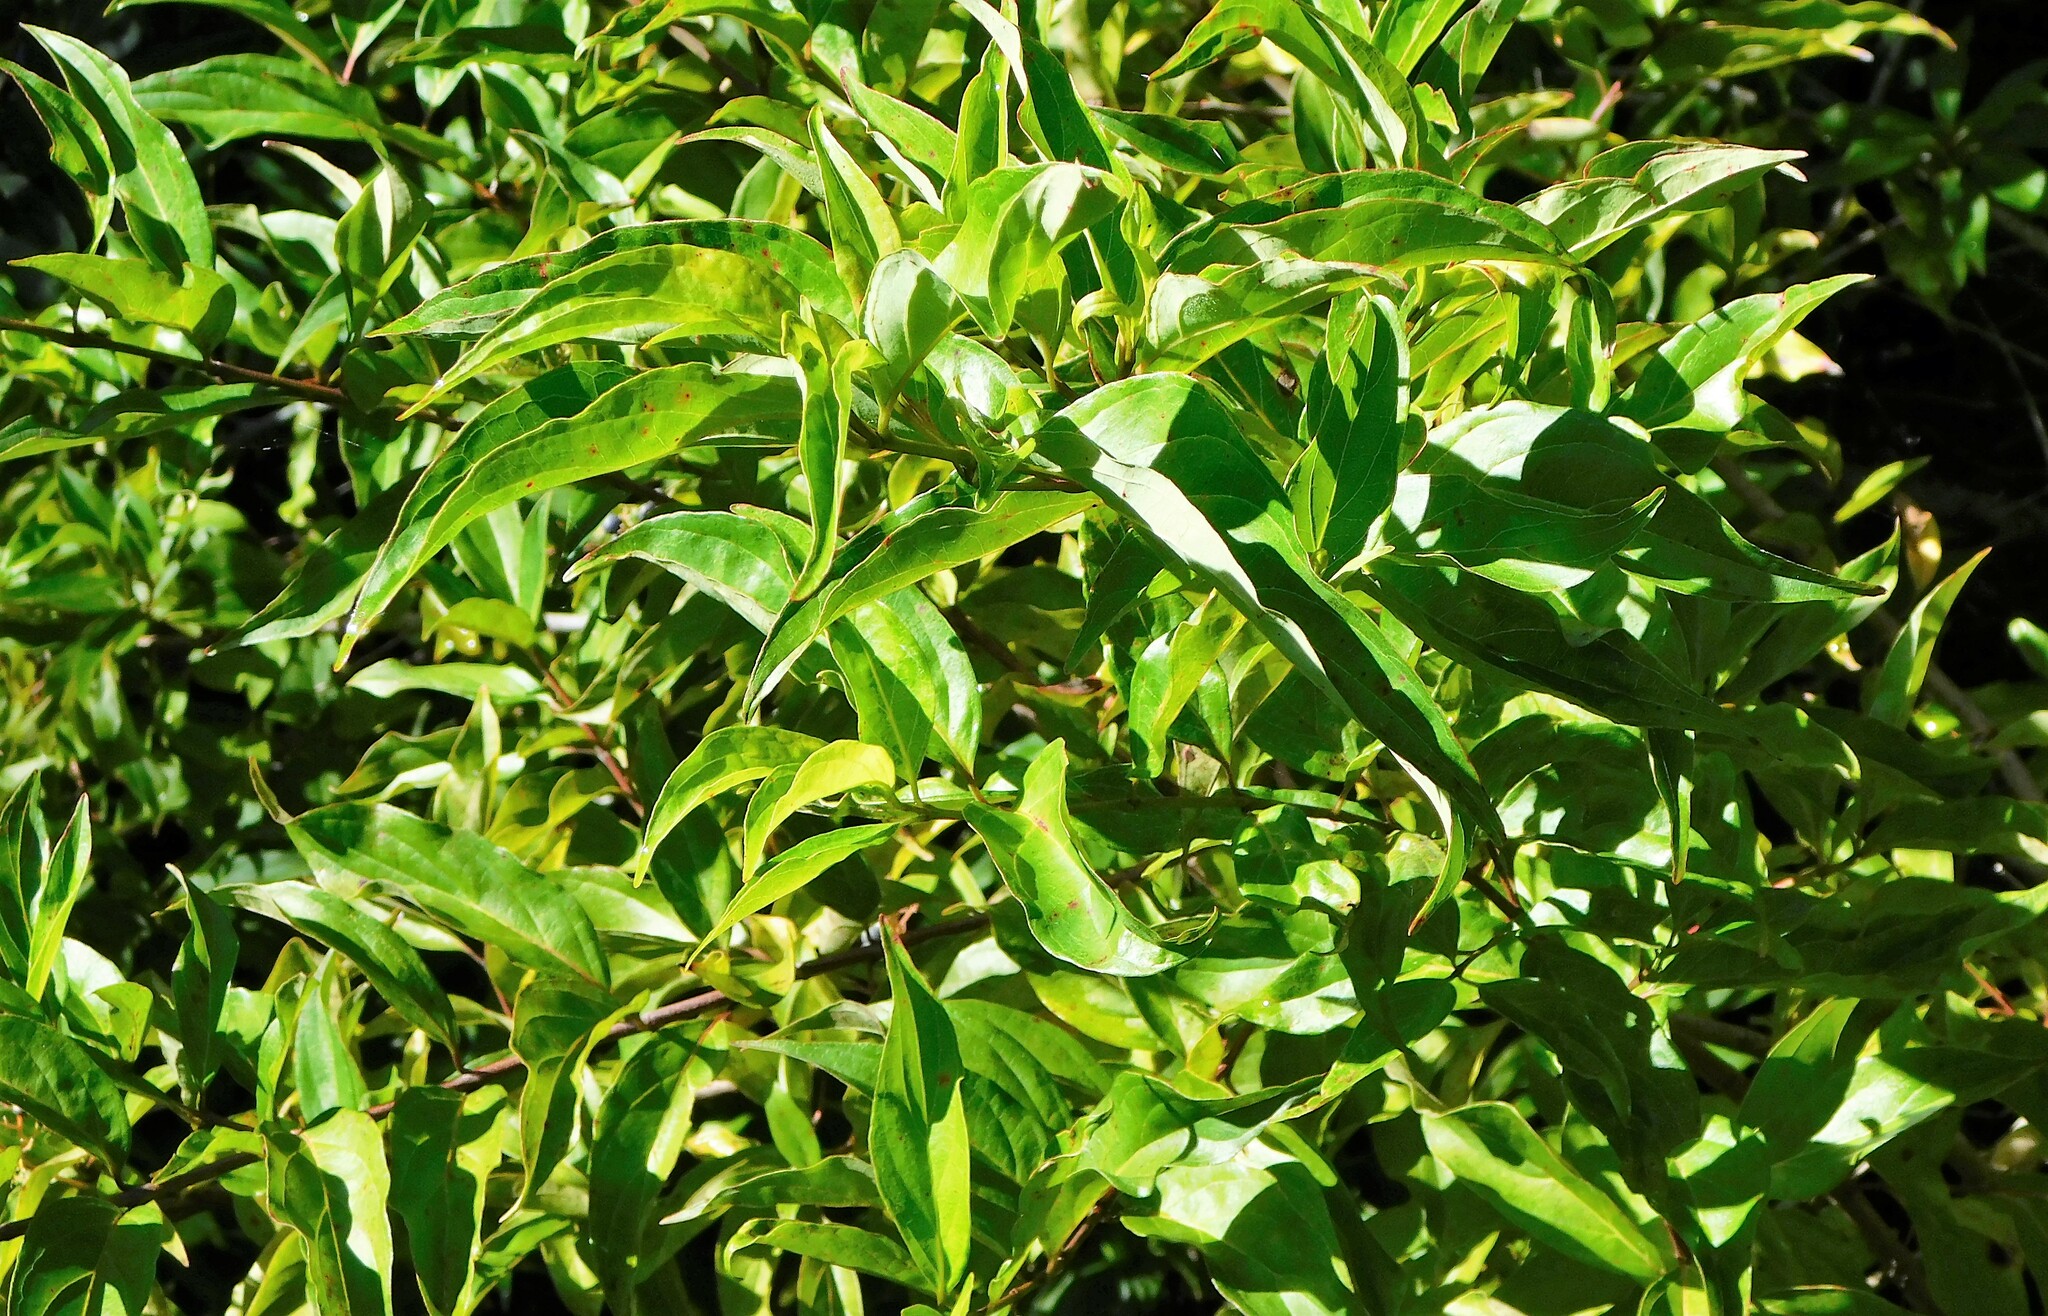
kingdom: Plantae
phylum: Tracheophyta
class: Magnoliopsida
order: Cornales
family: Cornaceae
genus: Cornus
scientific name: Cornus foemina
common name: Swamp dogwood
